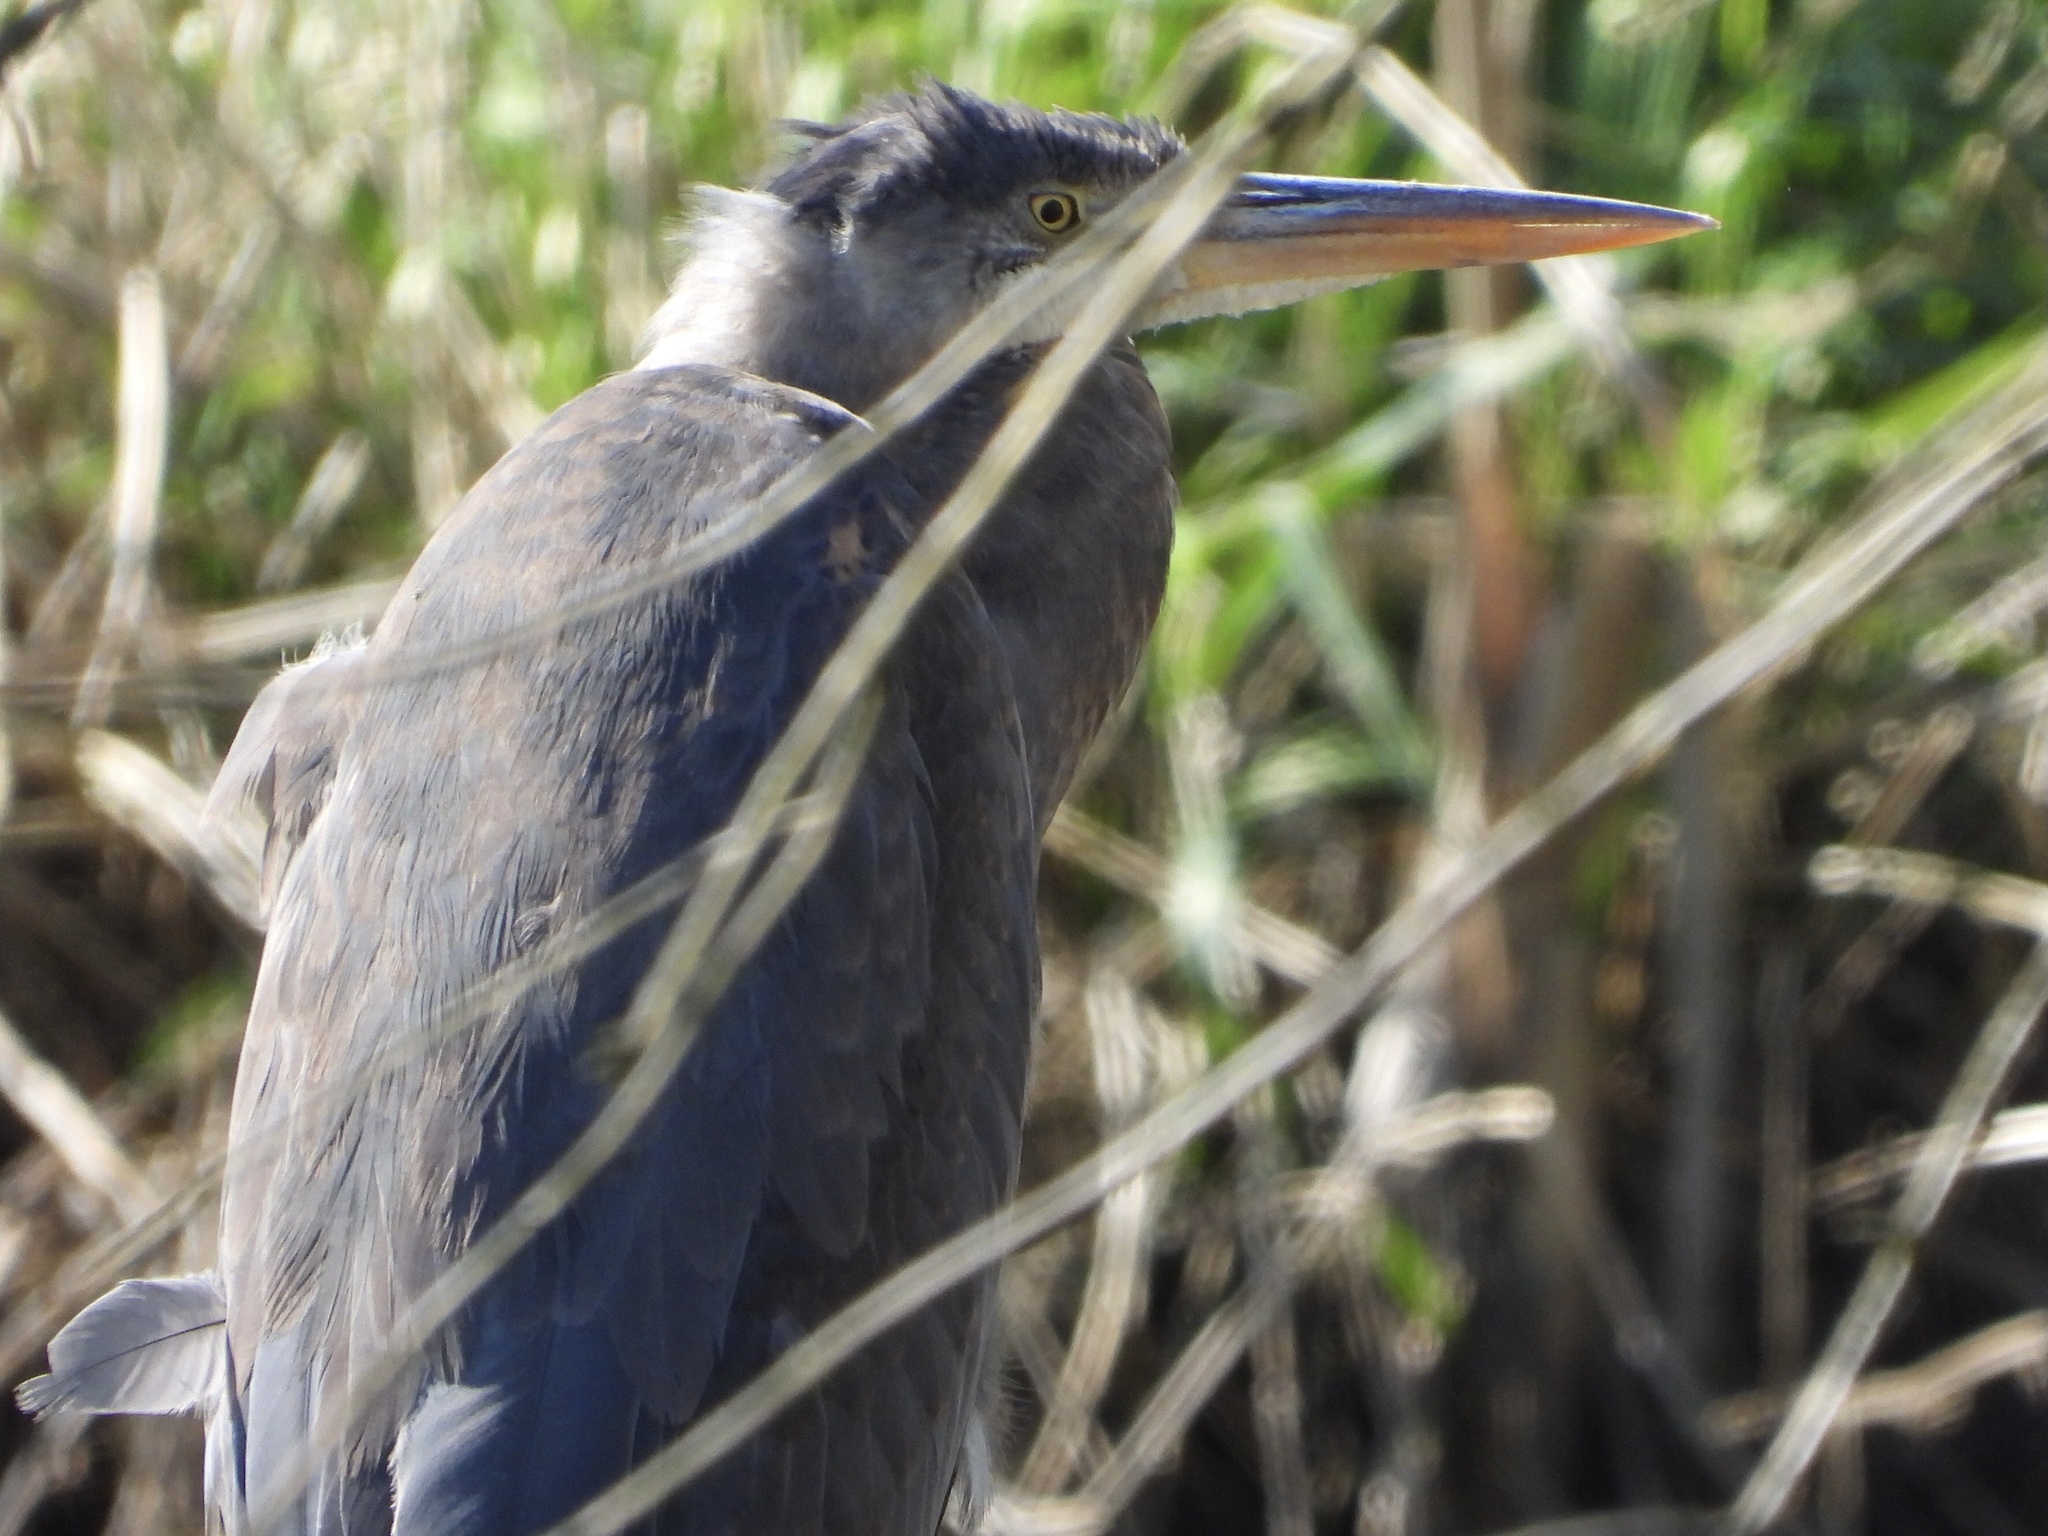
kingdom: Animalia
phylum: Chordata
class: Aves
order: Pelecaniformes
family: Ardeidae
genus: Ardea
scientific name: Ardea herodias
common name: Great blue heron
